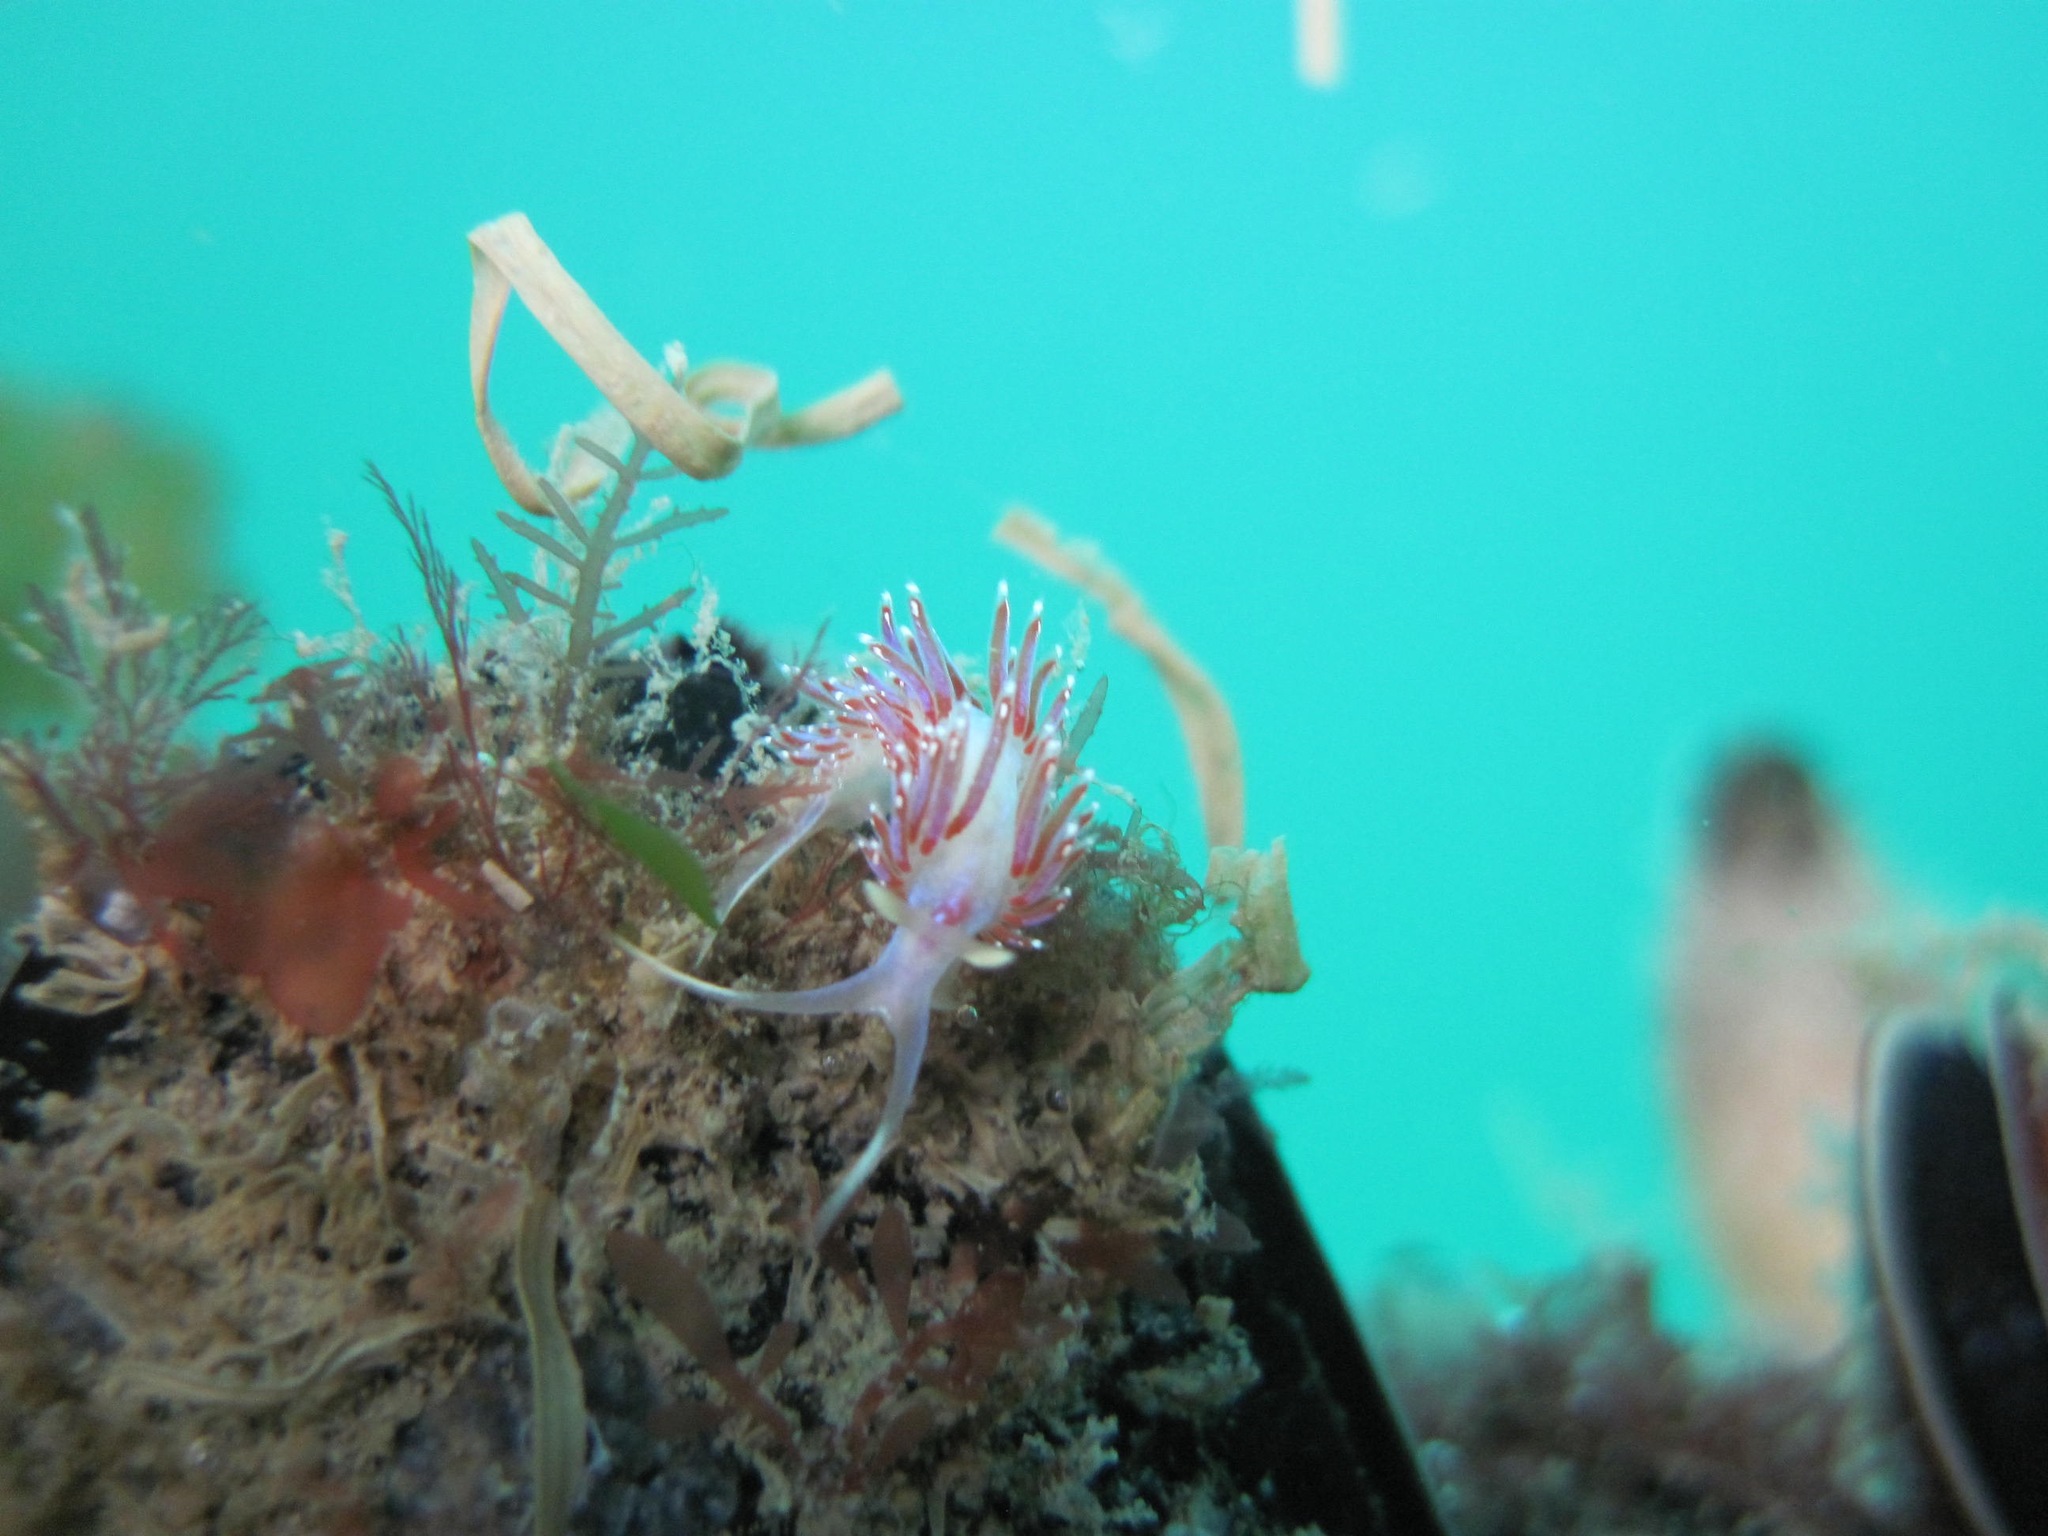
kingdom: Animalia
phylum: Mollusca
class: Gastropoda
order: Nudibranchia
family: Facelinidae
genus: Facelina
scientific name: Facelina auriculata
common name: Slender facelina
